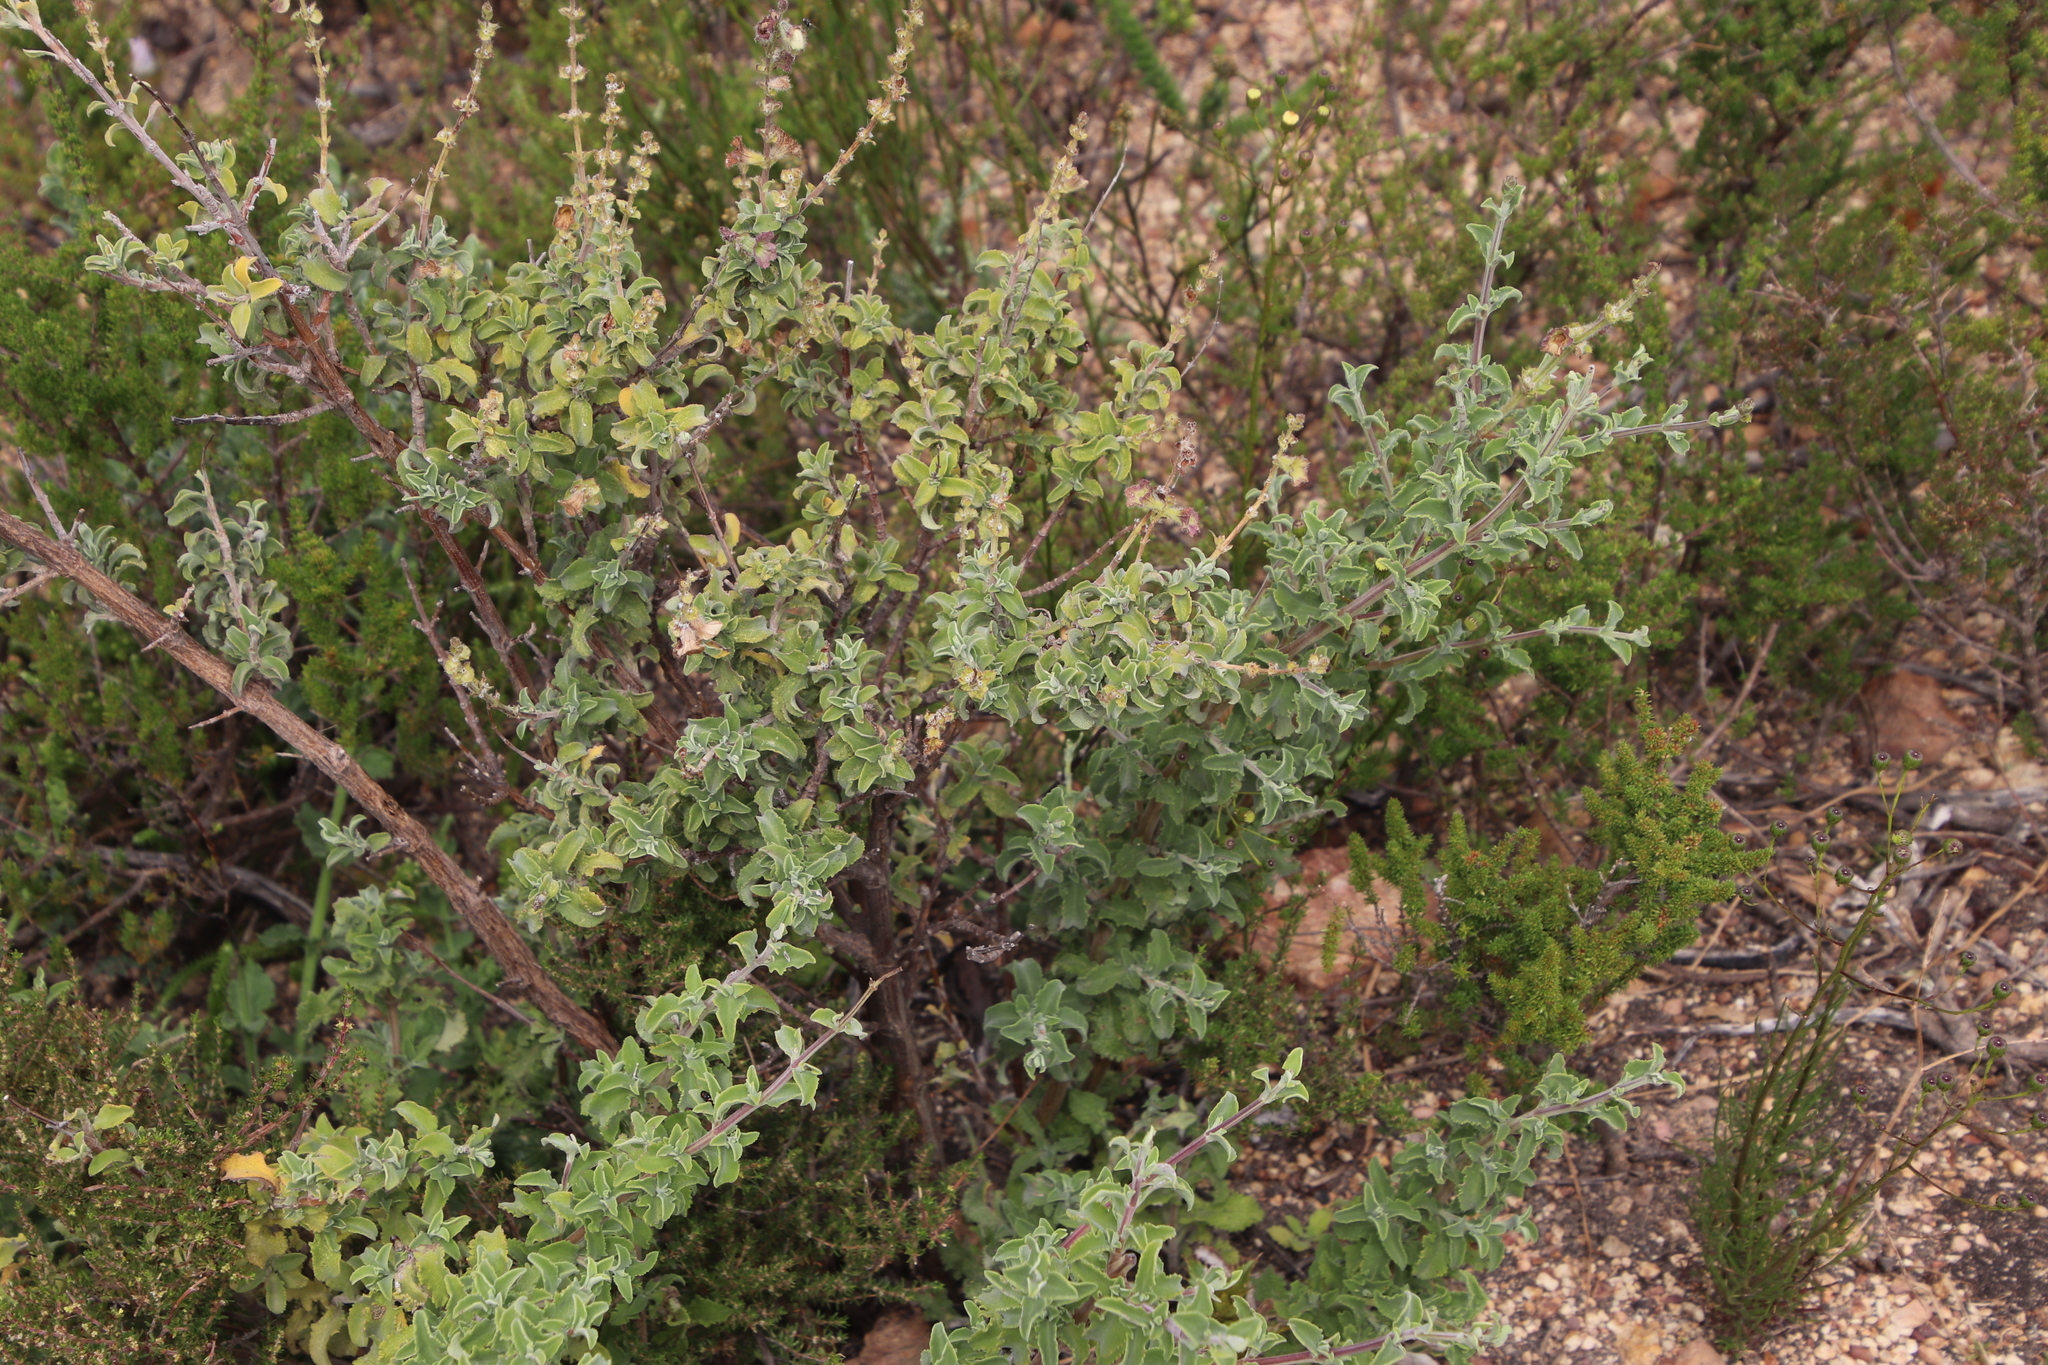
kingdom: Plantae
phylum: Tracheophyta
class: Magnoliopsida
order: Lamiales
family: Lamiaceae
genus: Salvia
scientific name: Salvia africana
